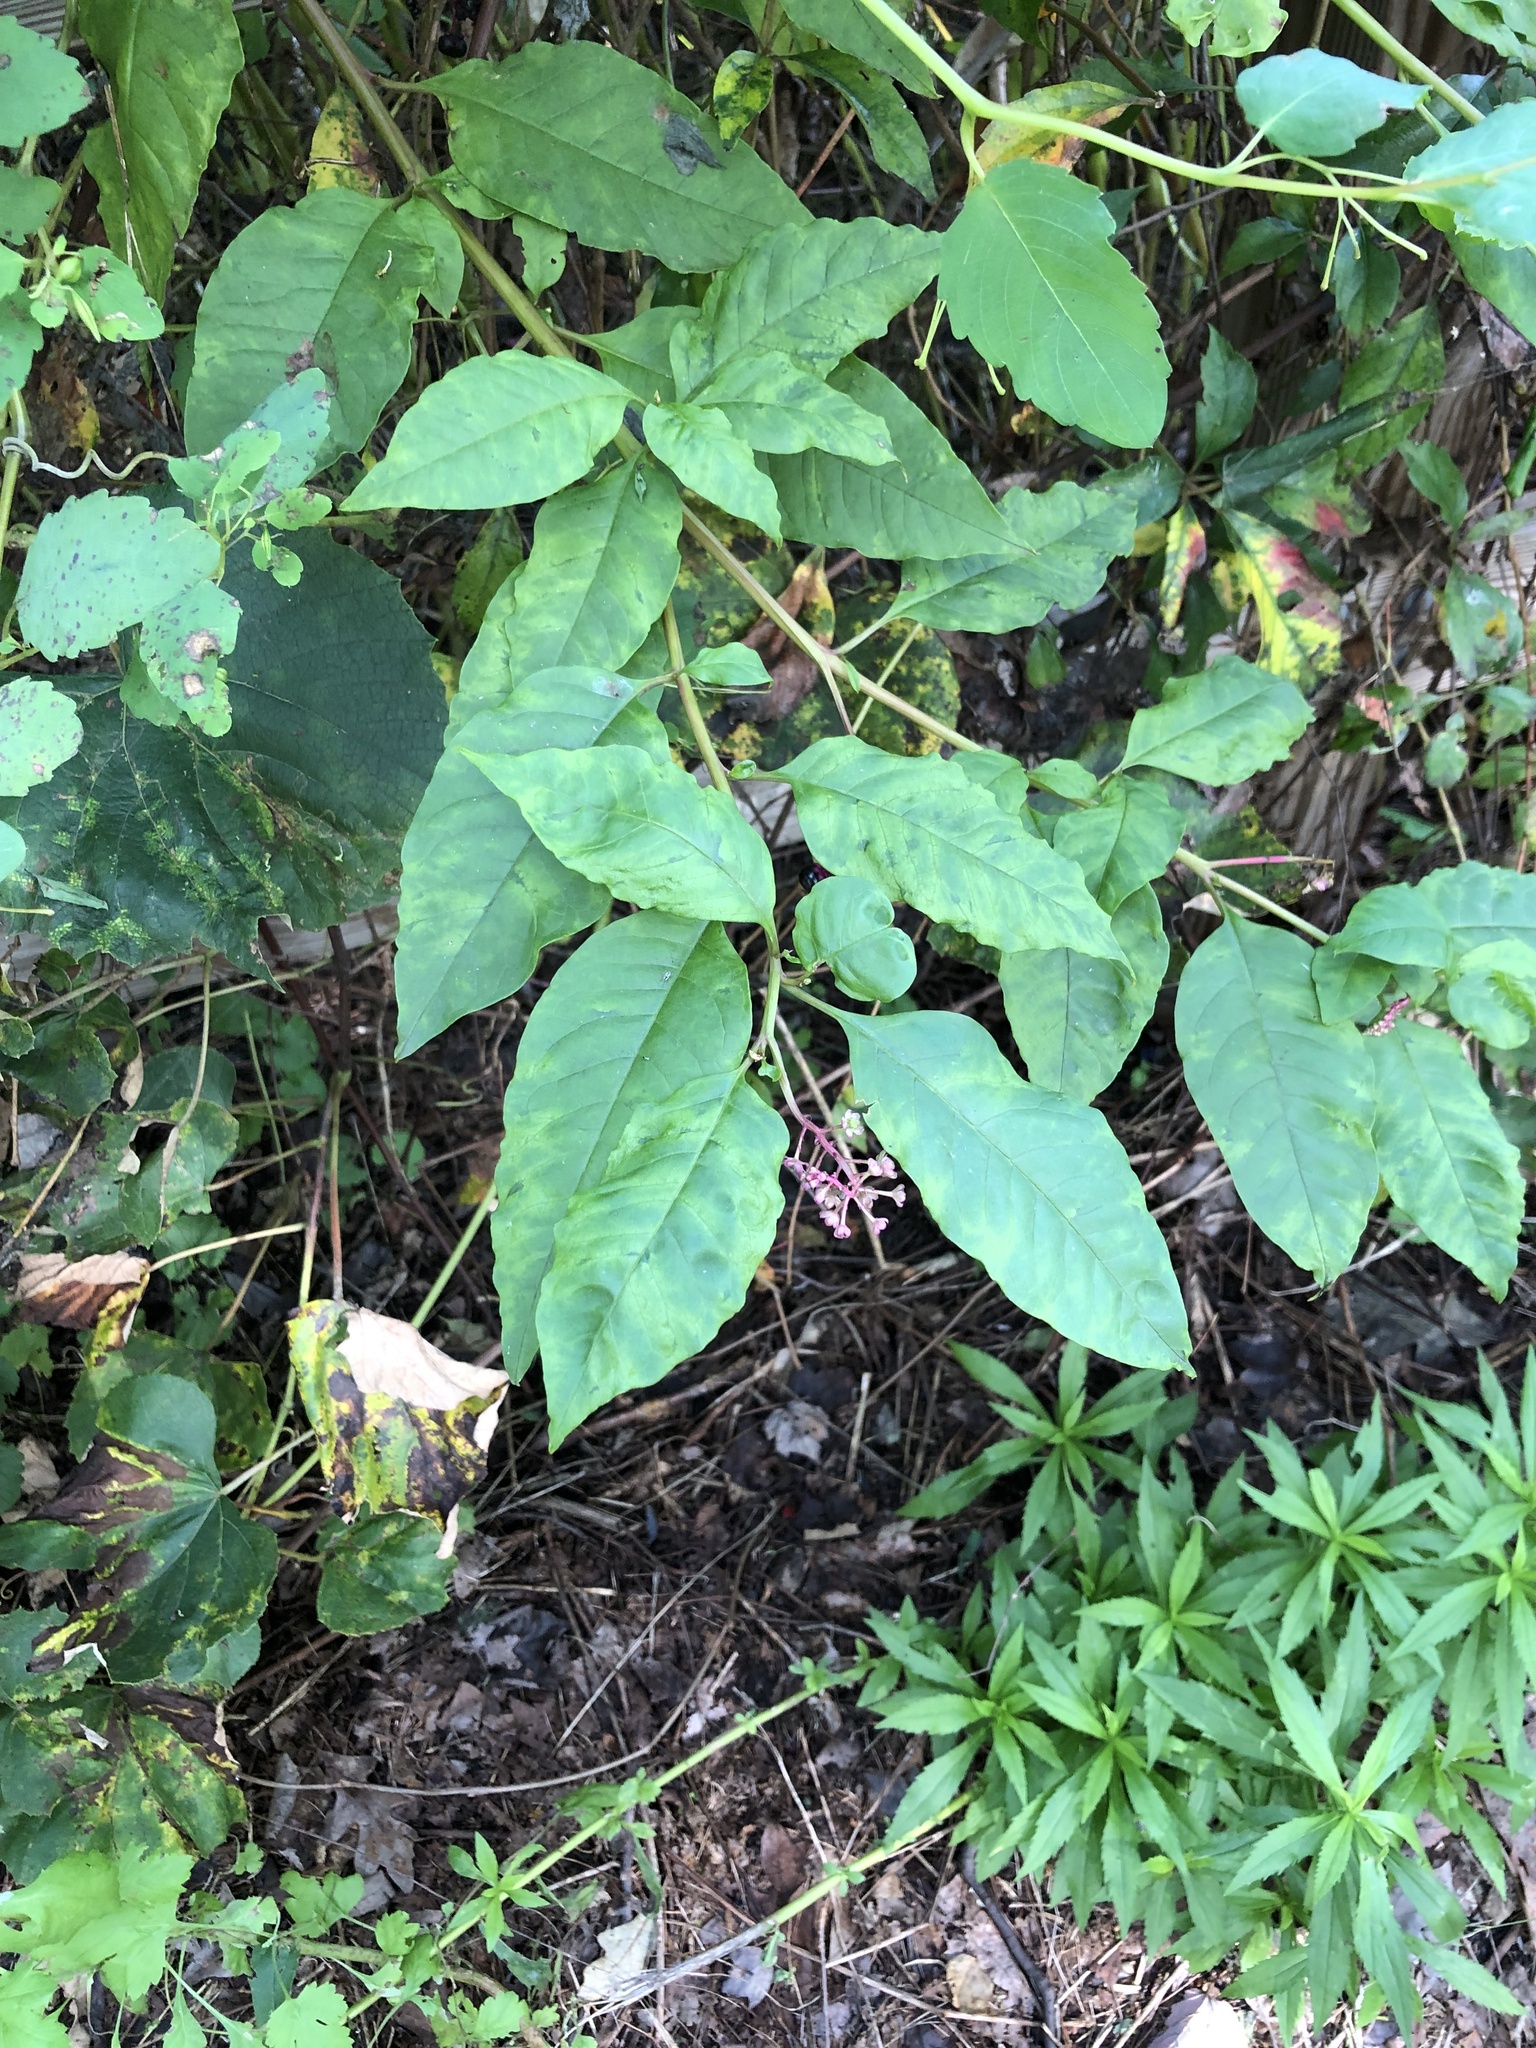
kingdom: Viruses
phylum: Pisuviricota
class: Stelpaviricetes
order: Patatavirales
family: Potyviridae
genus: Potyvirus
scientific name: Potyvirus Pokeweed mosaic virus
